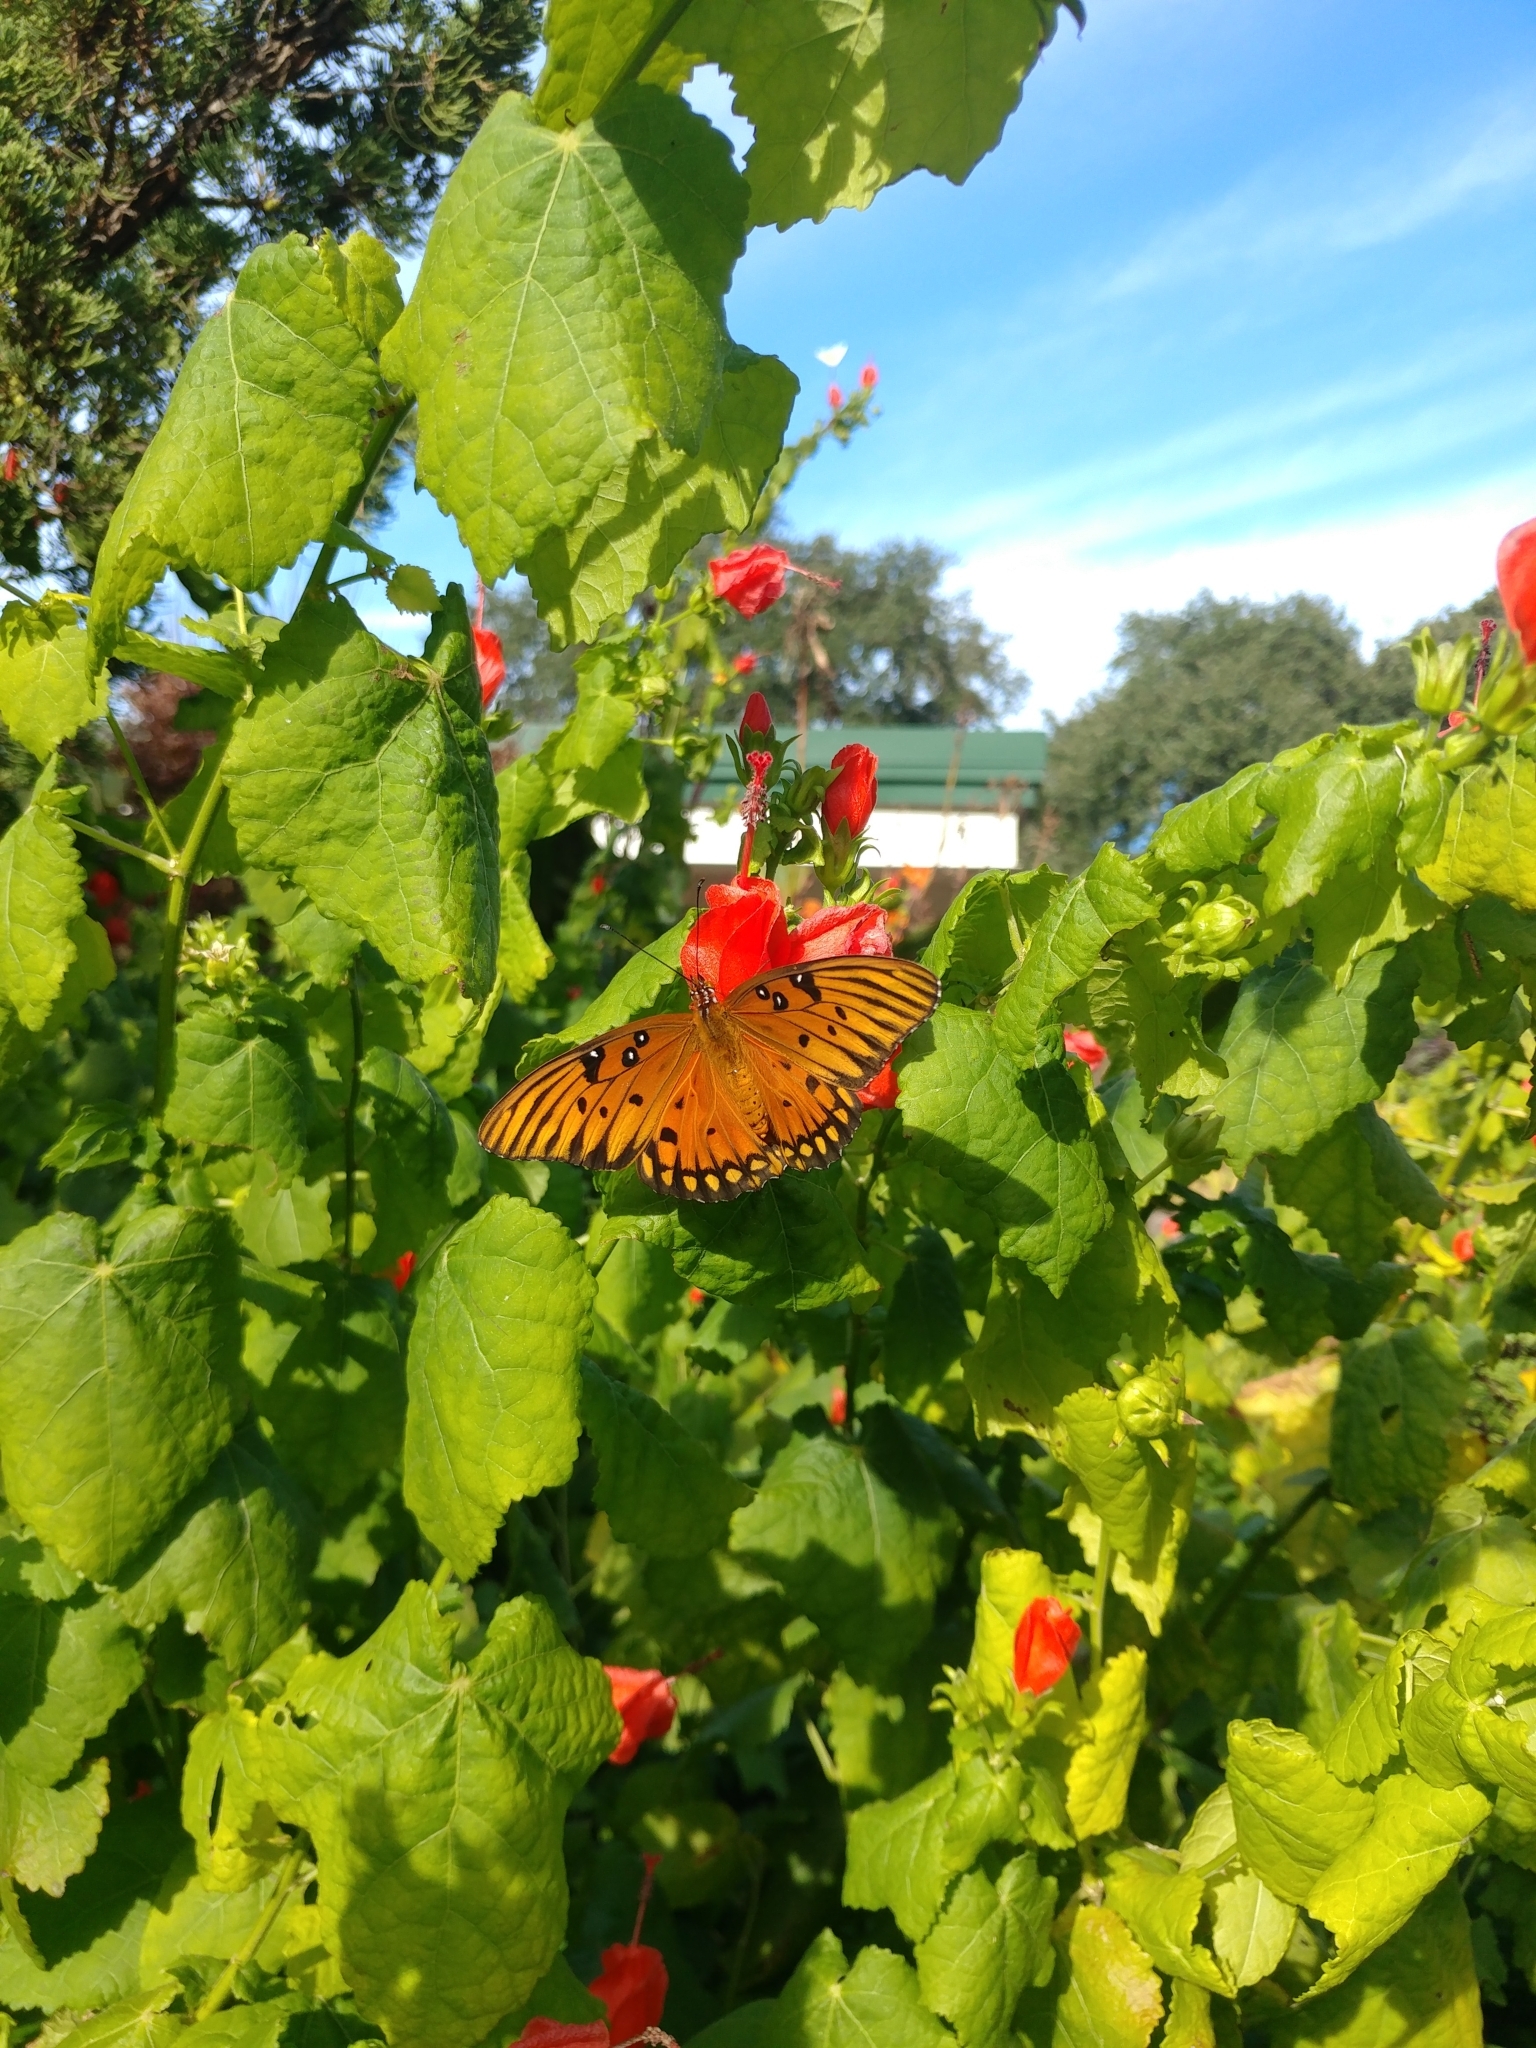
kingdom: Animalia
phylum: Arthropoda
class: Insecta
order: Lepidoptera
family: Nymphalidae
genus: Dione
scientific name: Dione vanillae
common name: Gulf fritillary
